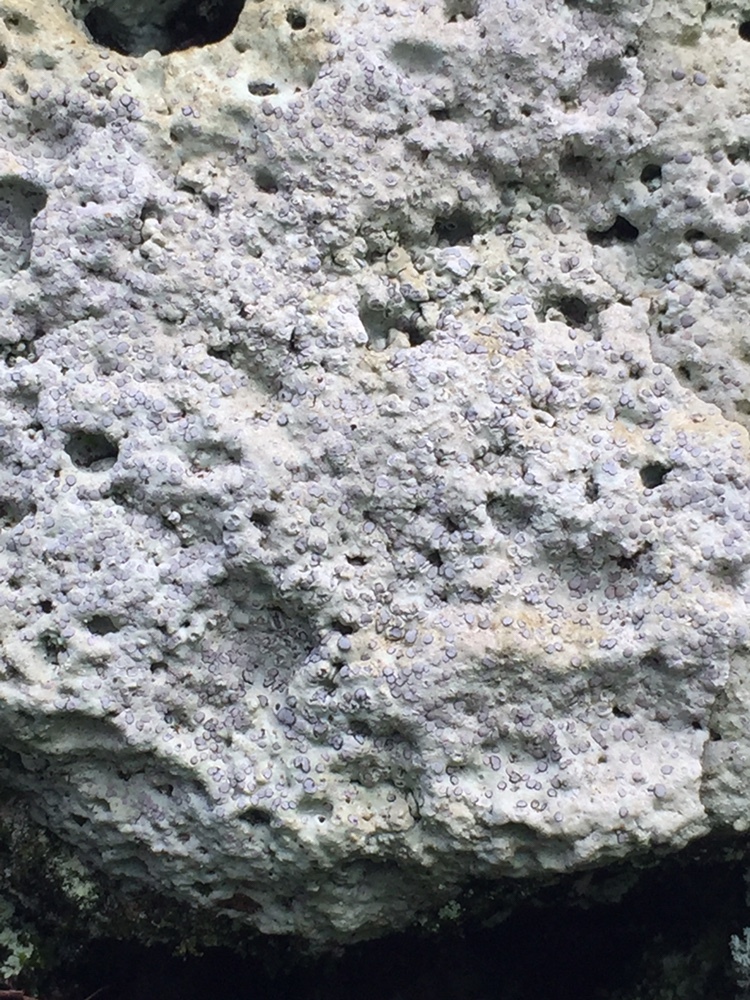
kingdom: Fungi
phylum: Ascomycota
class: Lecanoromycetes
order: Lecideales
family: Lecideaceae
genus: Porpidia
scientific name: Porpidia albocaerulescens
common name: Smokey-eyed boulder lichen
